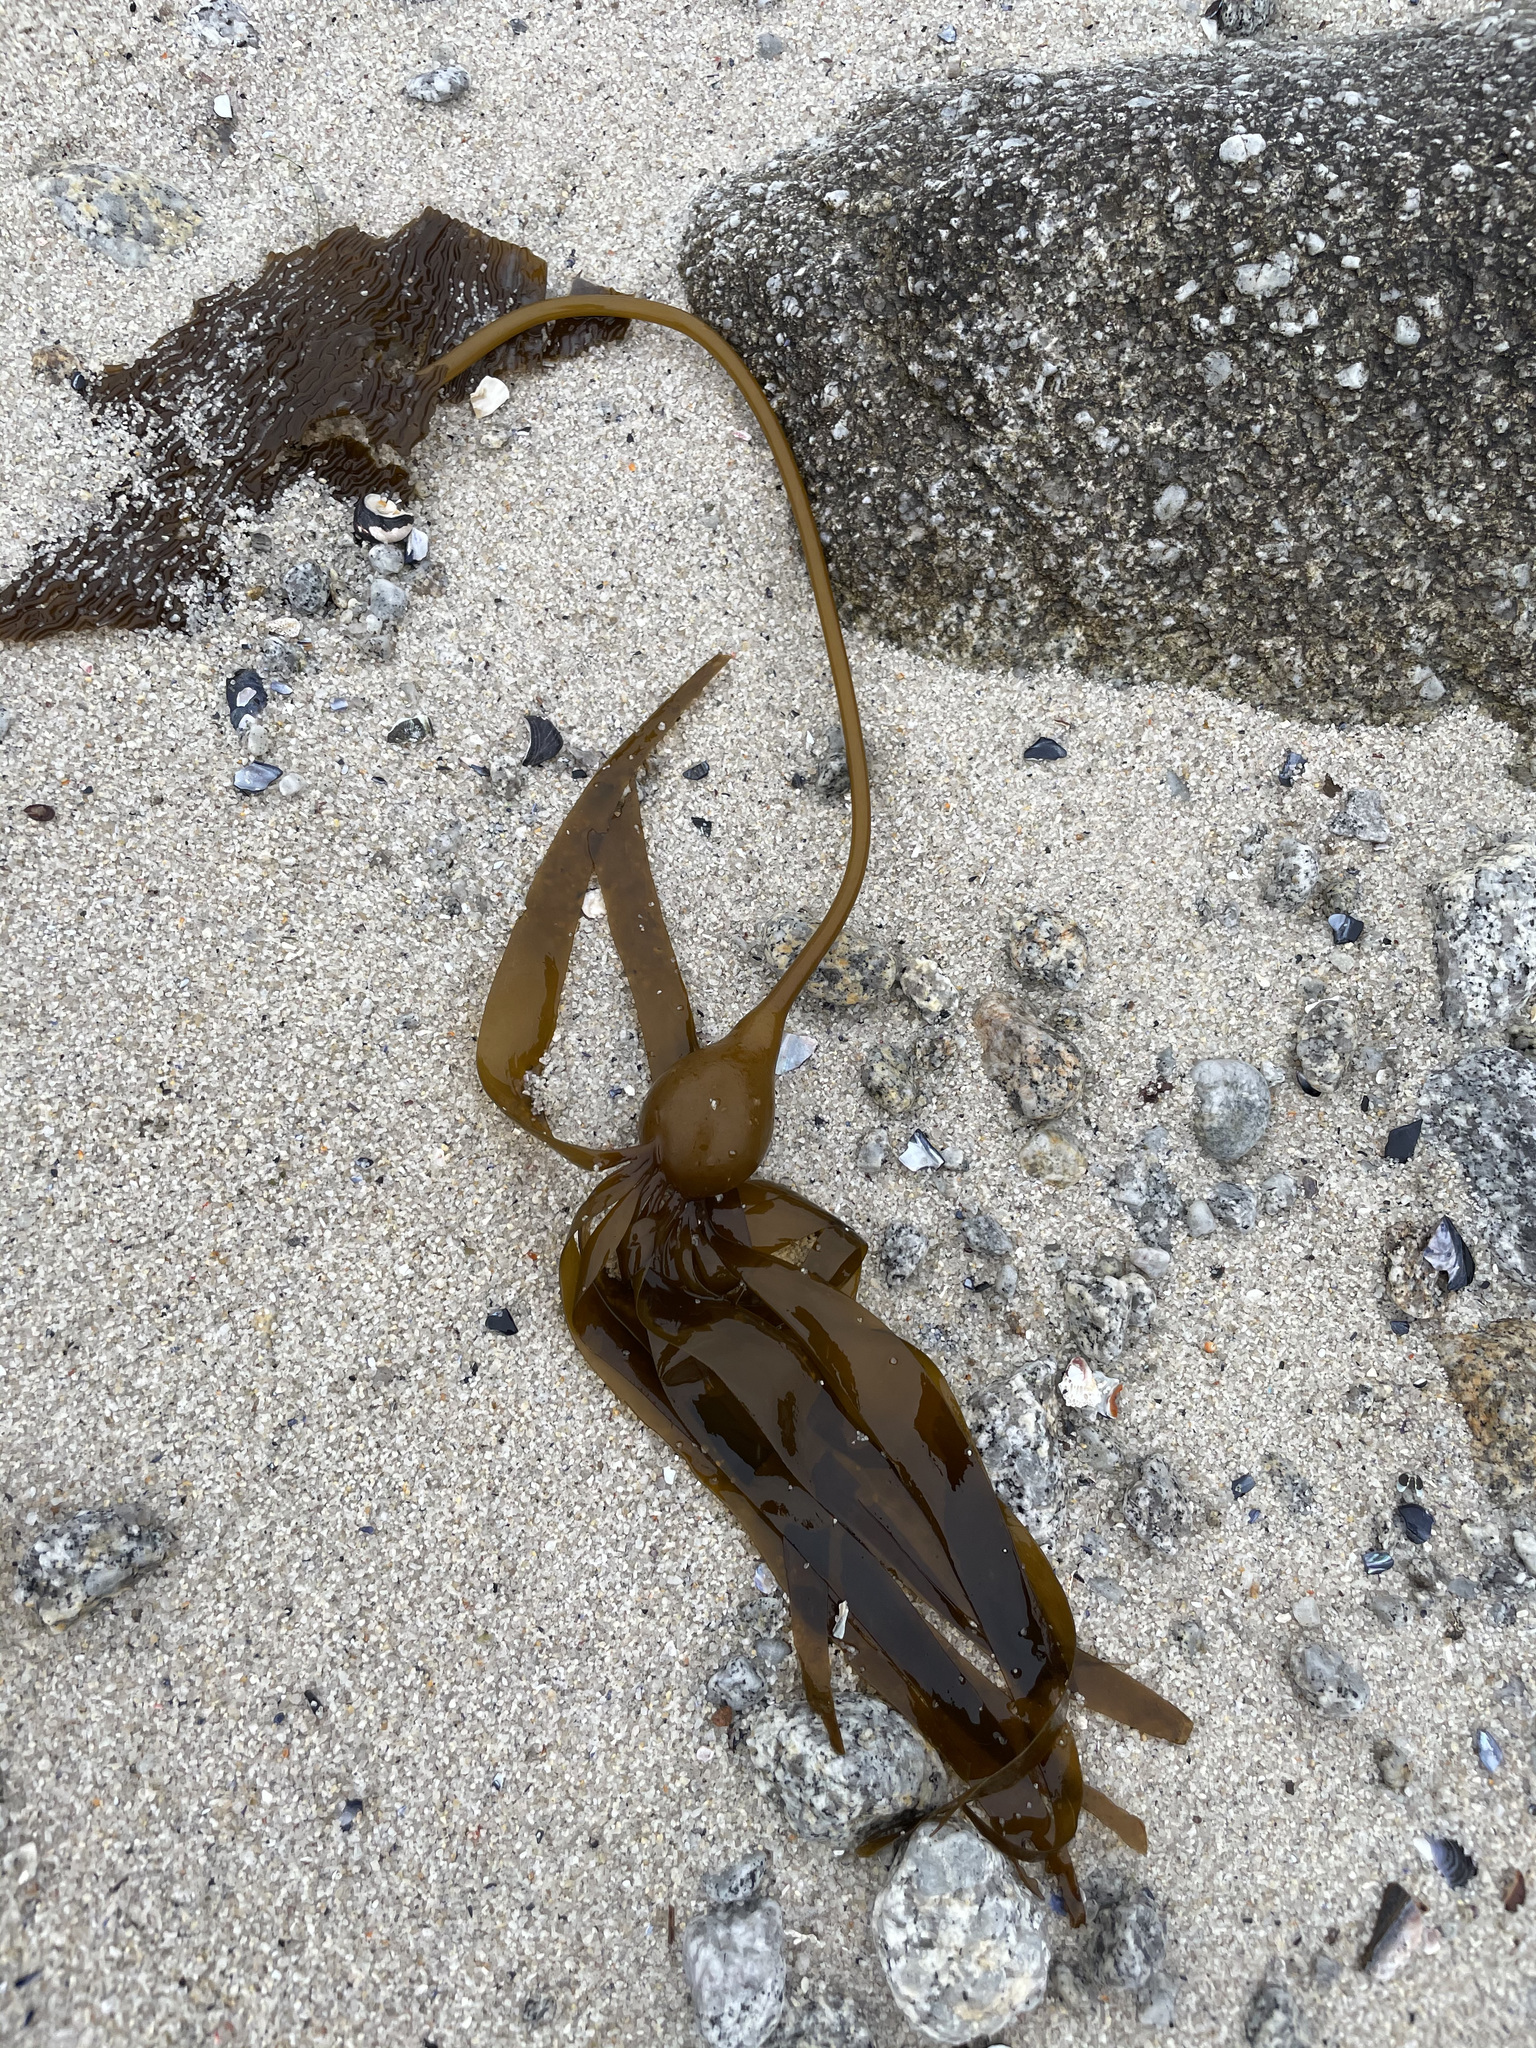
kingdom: Chromista
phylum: Ochrophyta
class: Phaeophyceae
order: Laminariales
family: Laminariaceae
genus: Nereocystis
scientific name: Nereocystis luetkeana
